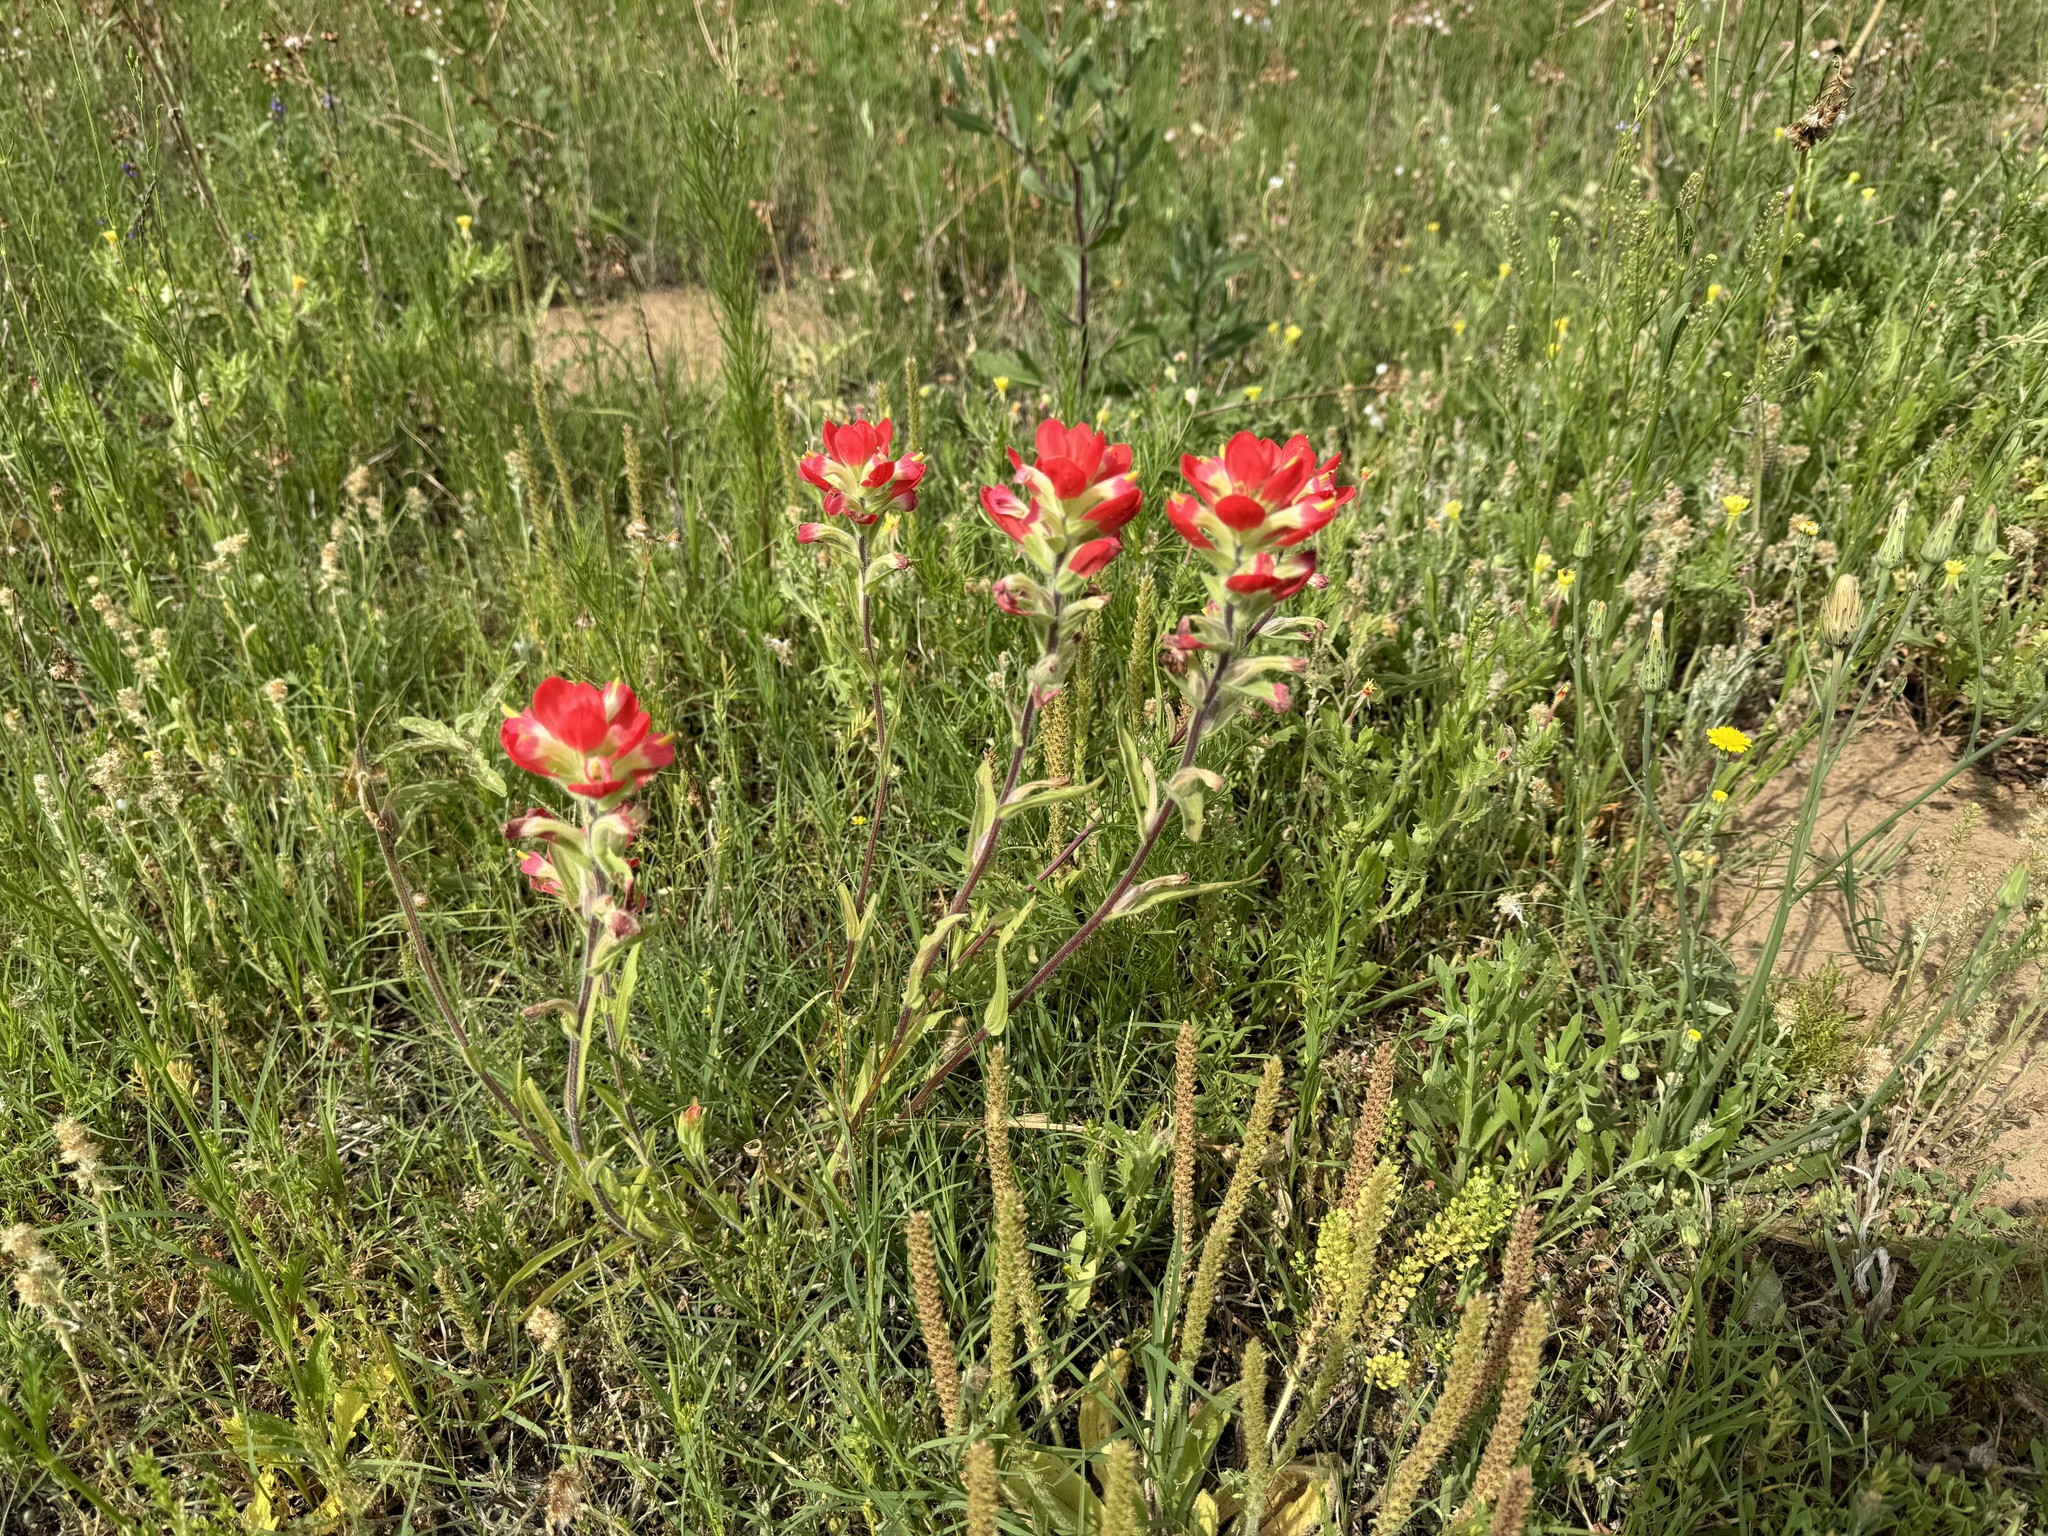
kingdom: Plantae
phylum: Tracheophyta
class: Magnoliopsida
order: Lamiales
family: Orobanchaceae
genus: Castilleja
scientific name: Castilleja indivisa
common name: Texas paintbrush
